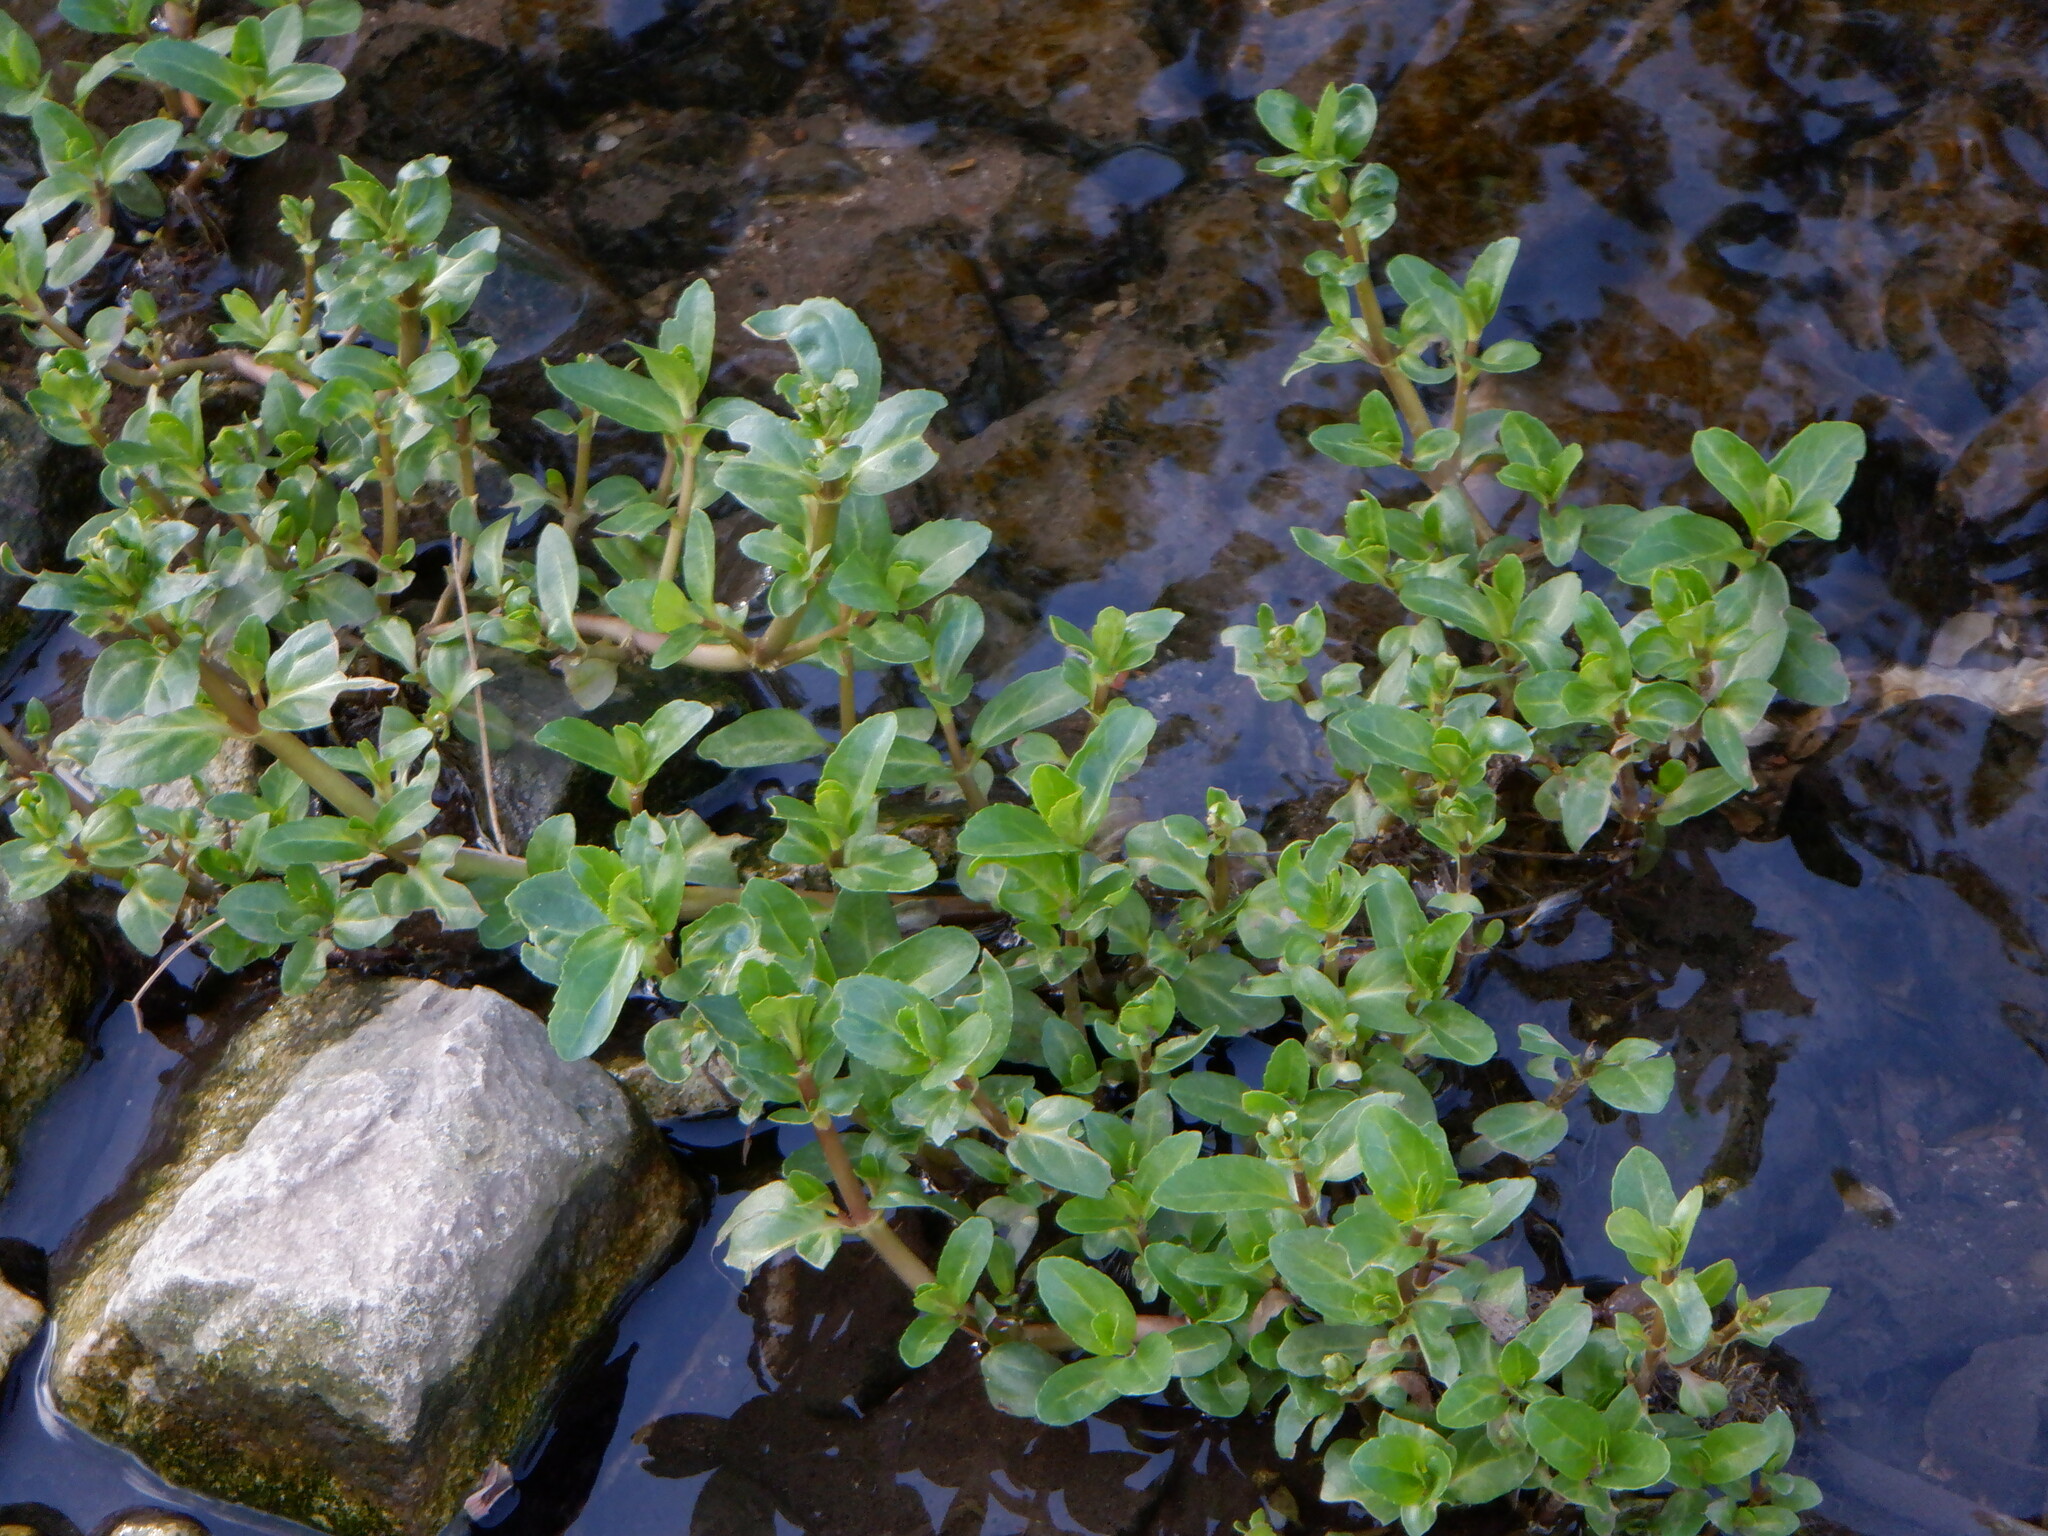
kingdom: Plantae
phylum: Tracheophyta
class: Magnoliopsida
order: Lamiales
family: Plantaginaceae
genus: Veronica
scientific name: Veronica beccabunga
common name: Brooklime
